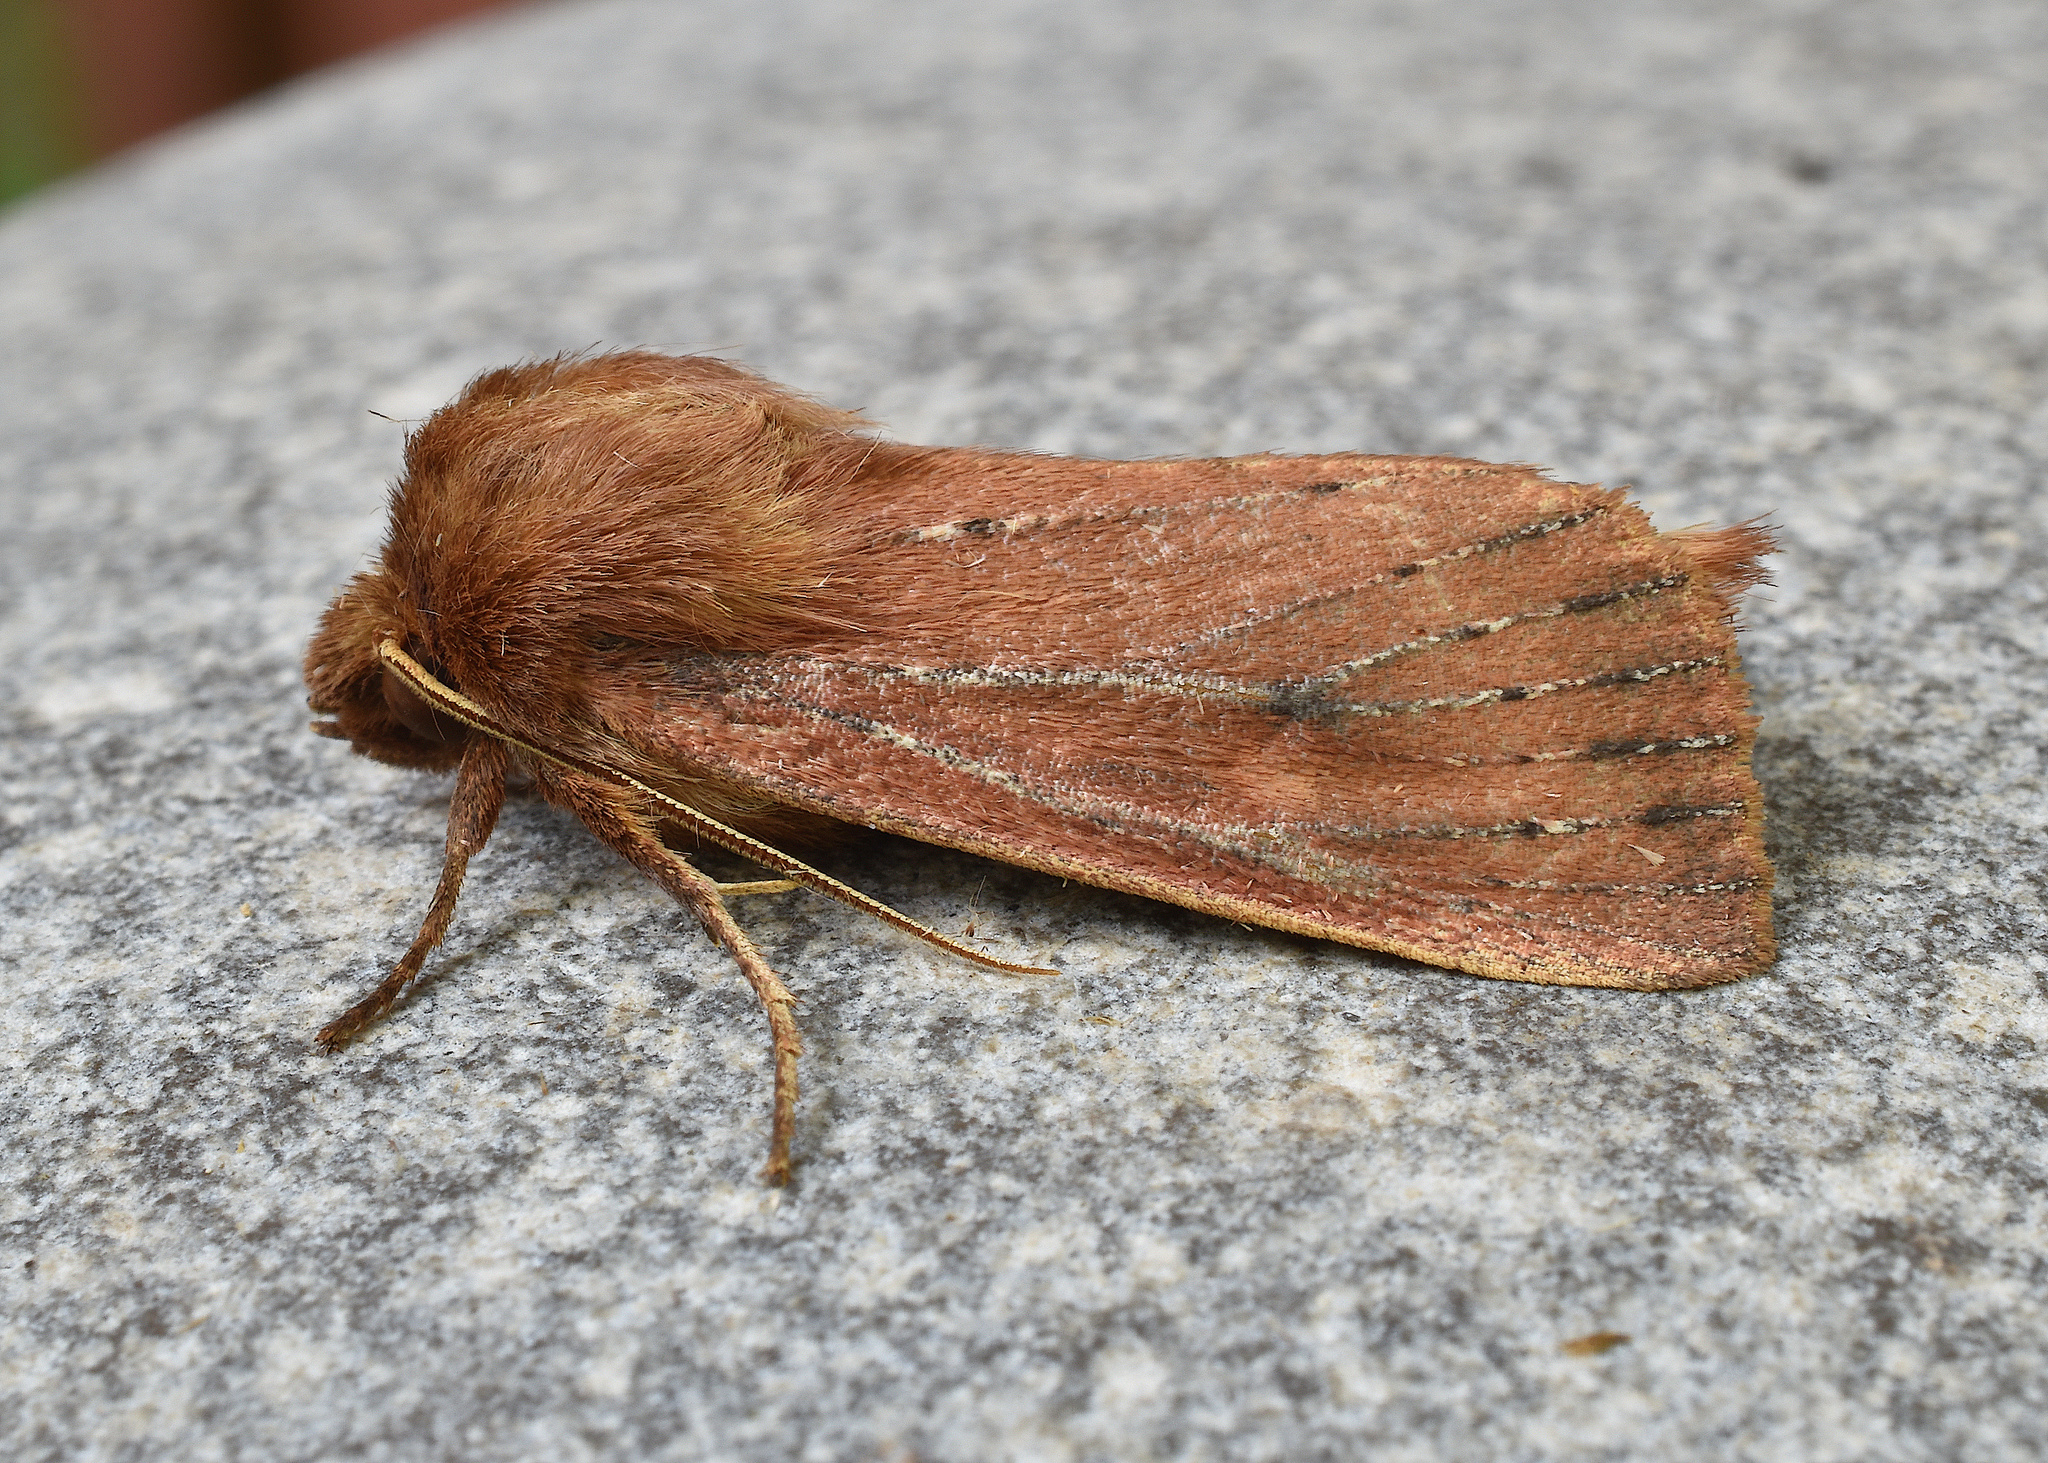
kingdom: Animalia
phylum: Arthropoda
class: Insecta
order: Lepidoptera
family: Noctuidae
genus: Globia
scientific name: Globia subflava
